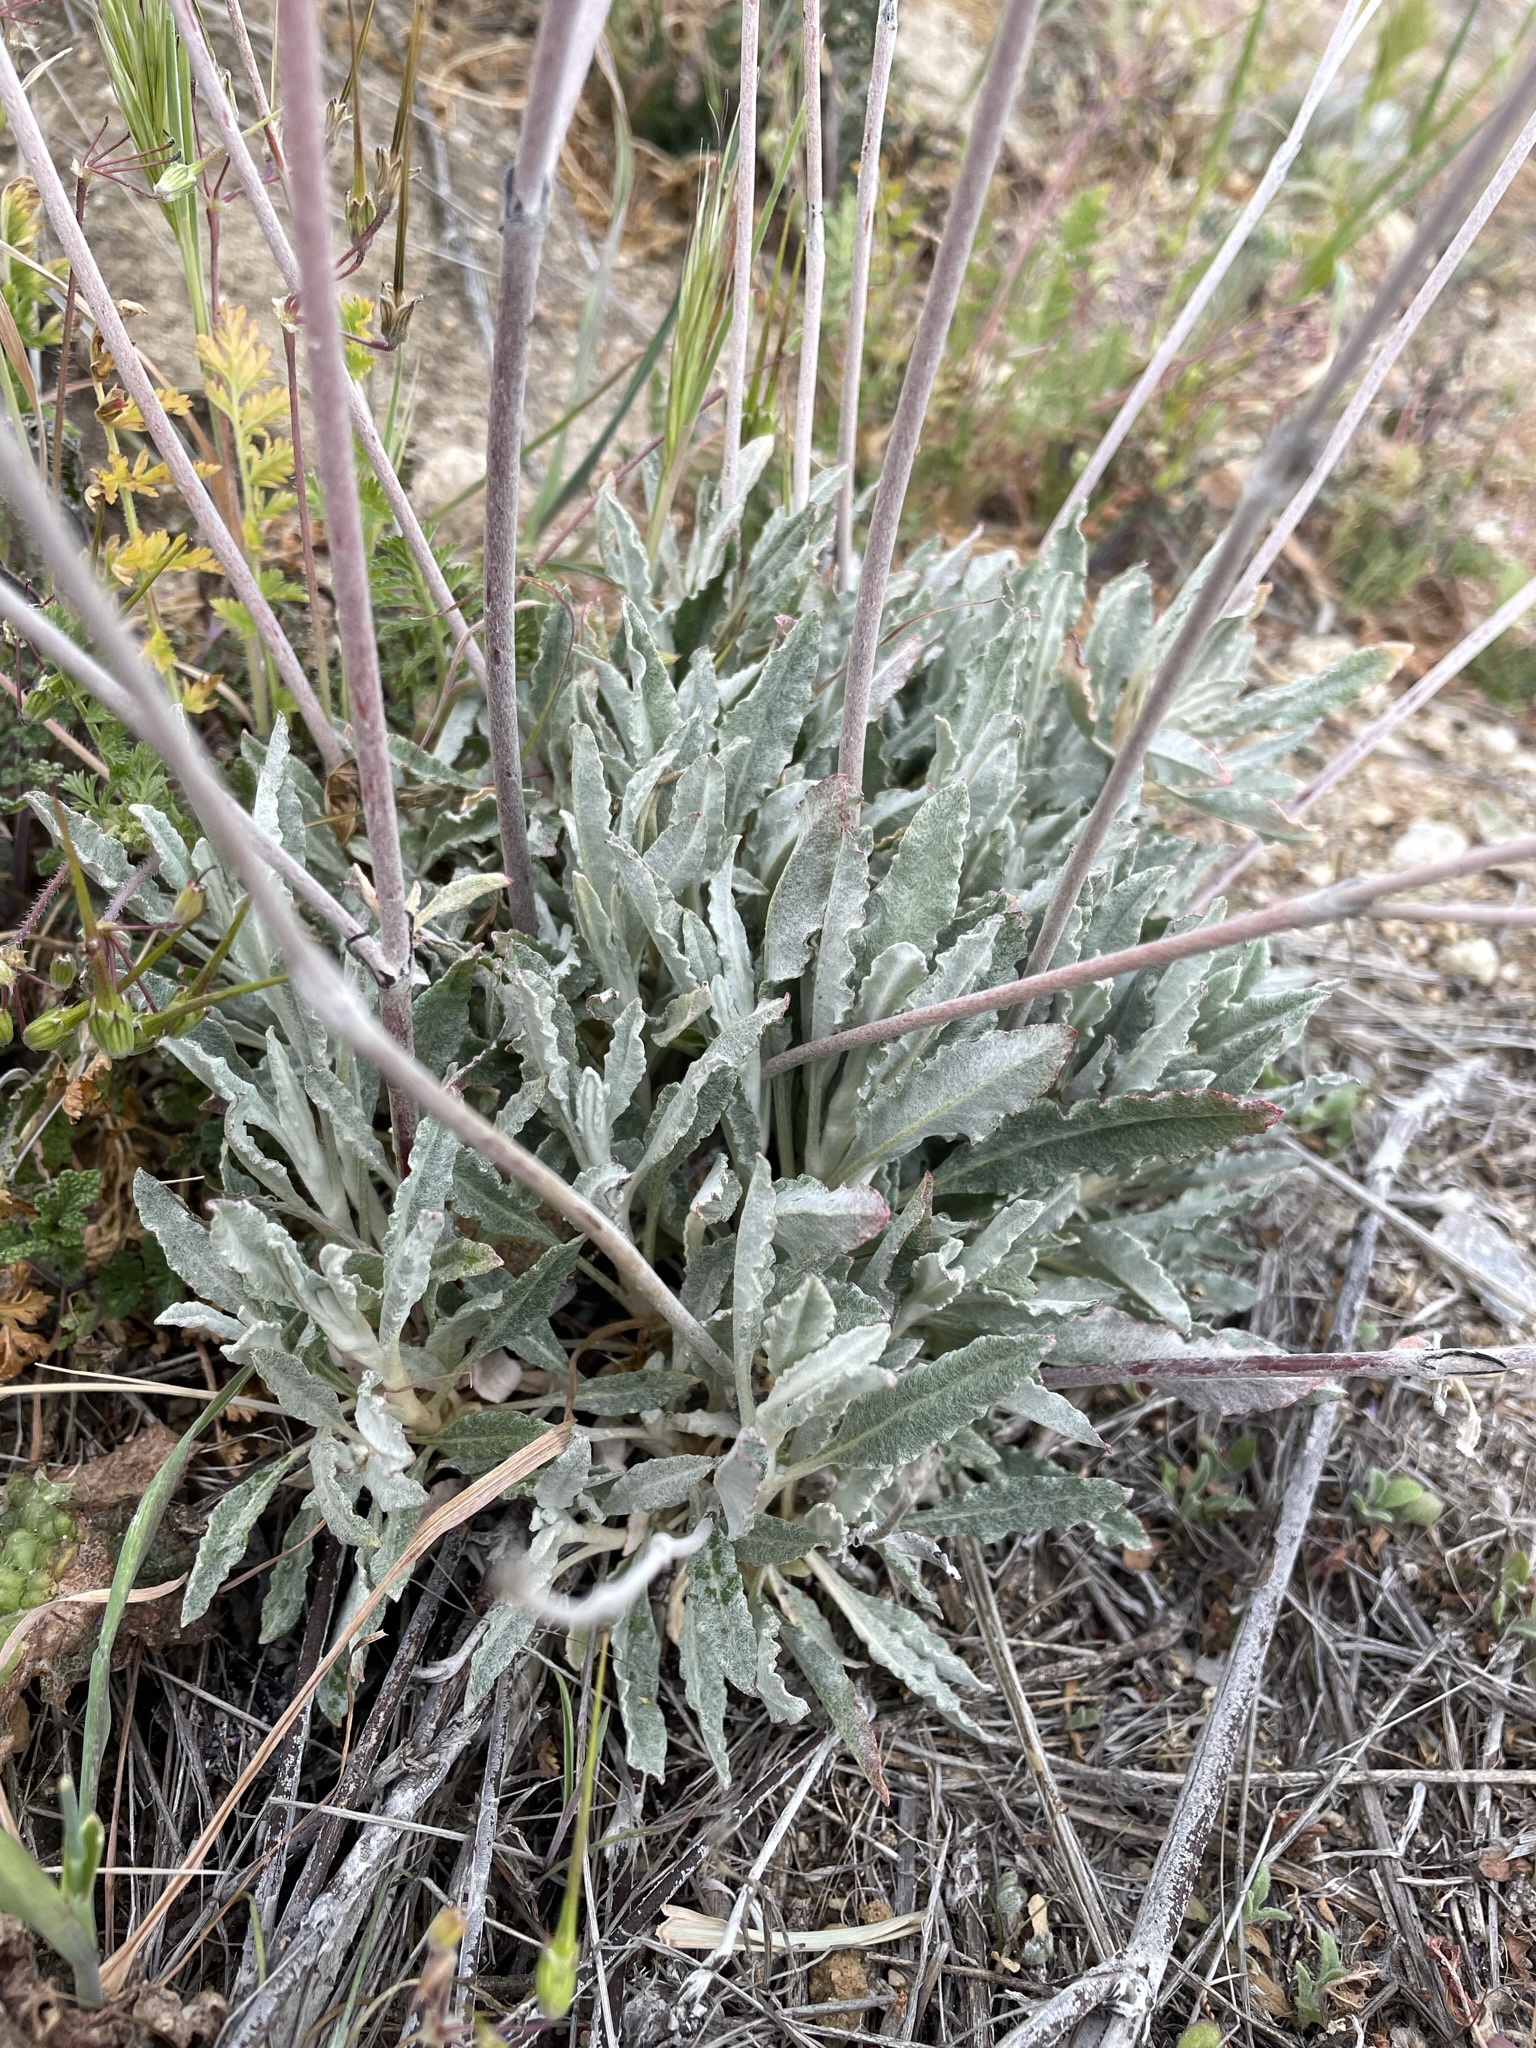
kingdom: Plantae
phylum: Tracheophyta
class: Magnoliopsida
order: Caryophyllales
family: Polygonaceae
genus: Eriogonum
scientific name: Eriogonum elongatum
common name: Long-stem wild buckwheat
